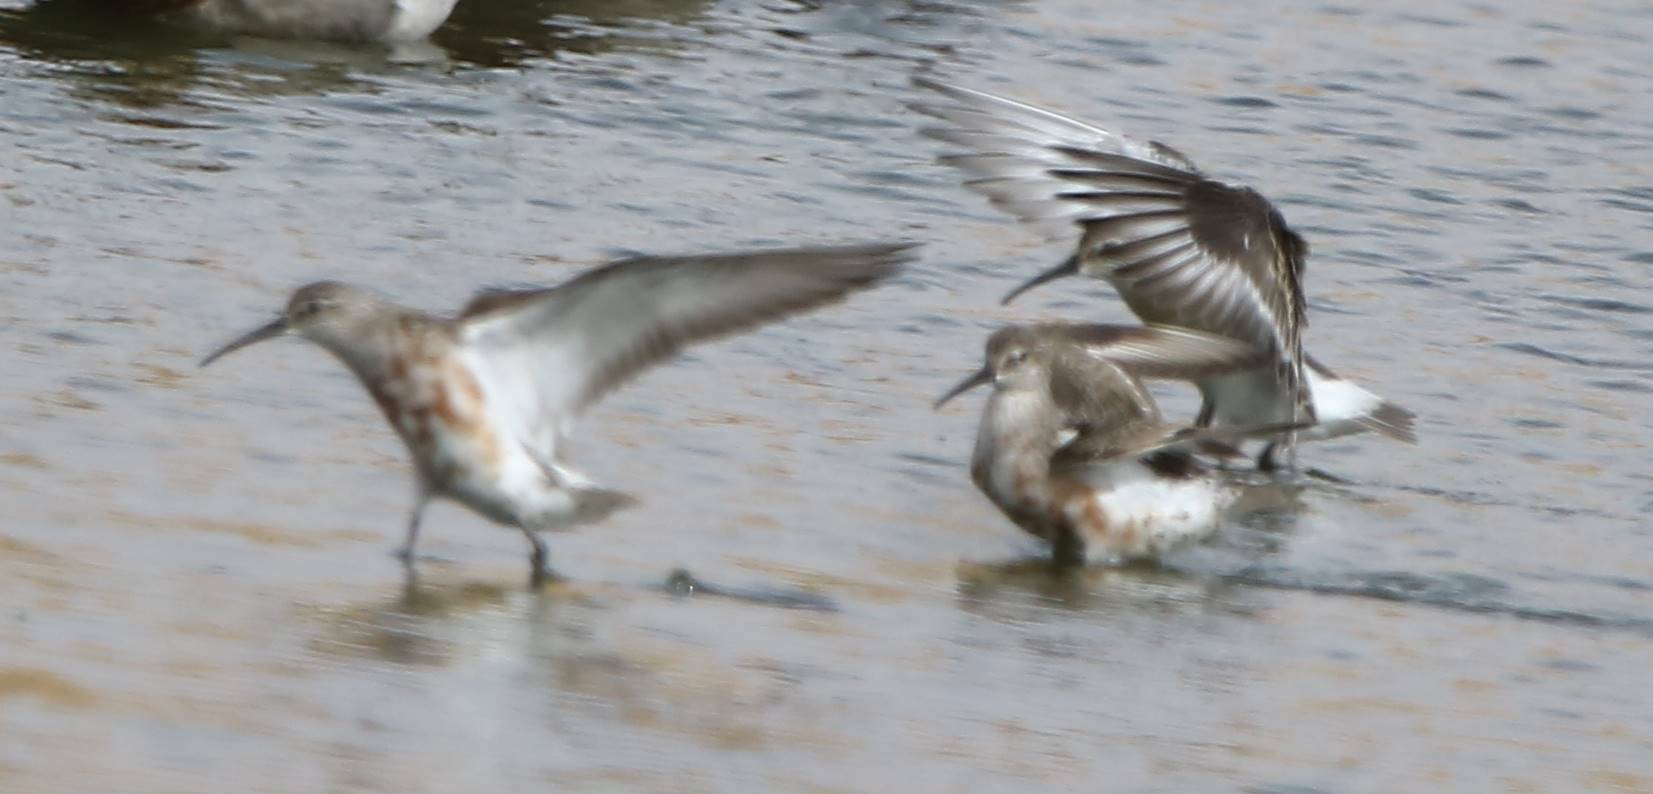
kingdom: Animalia
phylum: Chordata
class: Aves
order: Charadriiformes
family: Scolopacidae
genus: Calidris
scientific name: Calidris ferruginea
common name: Curlew sandpiper
